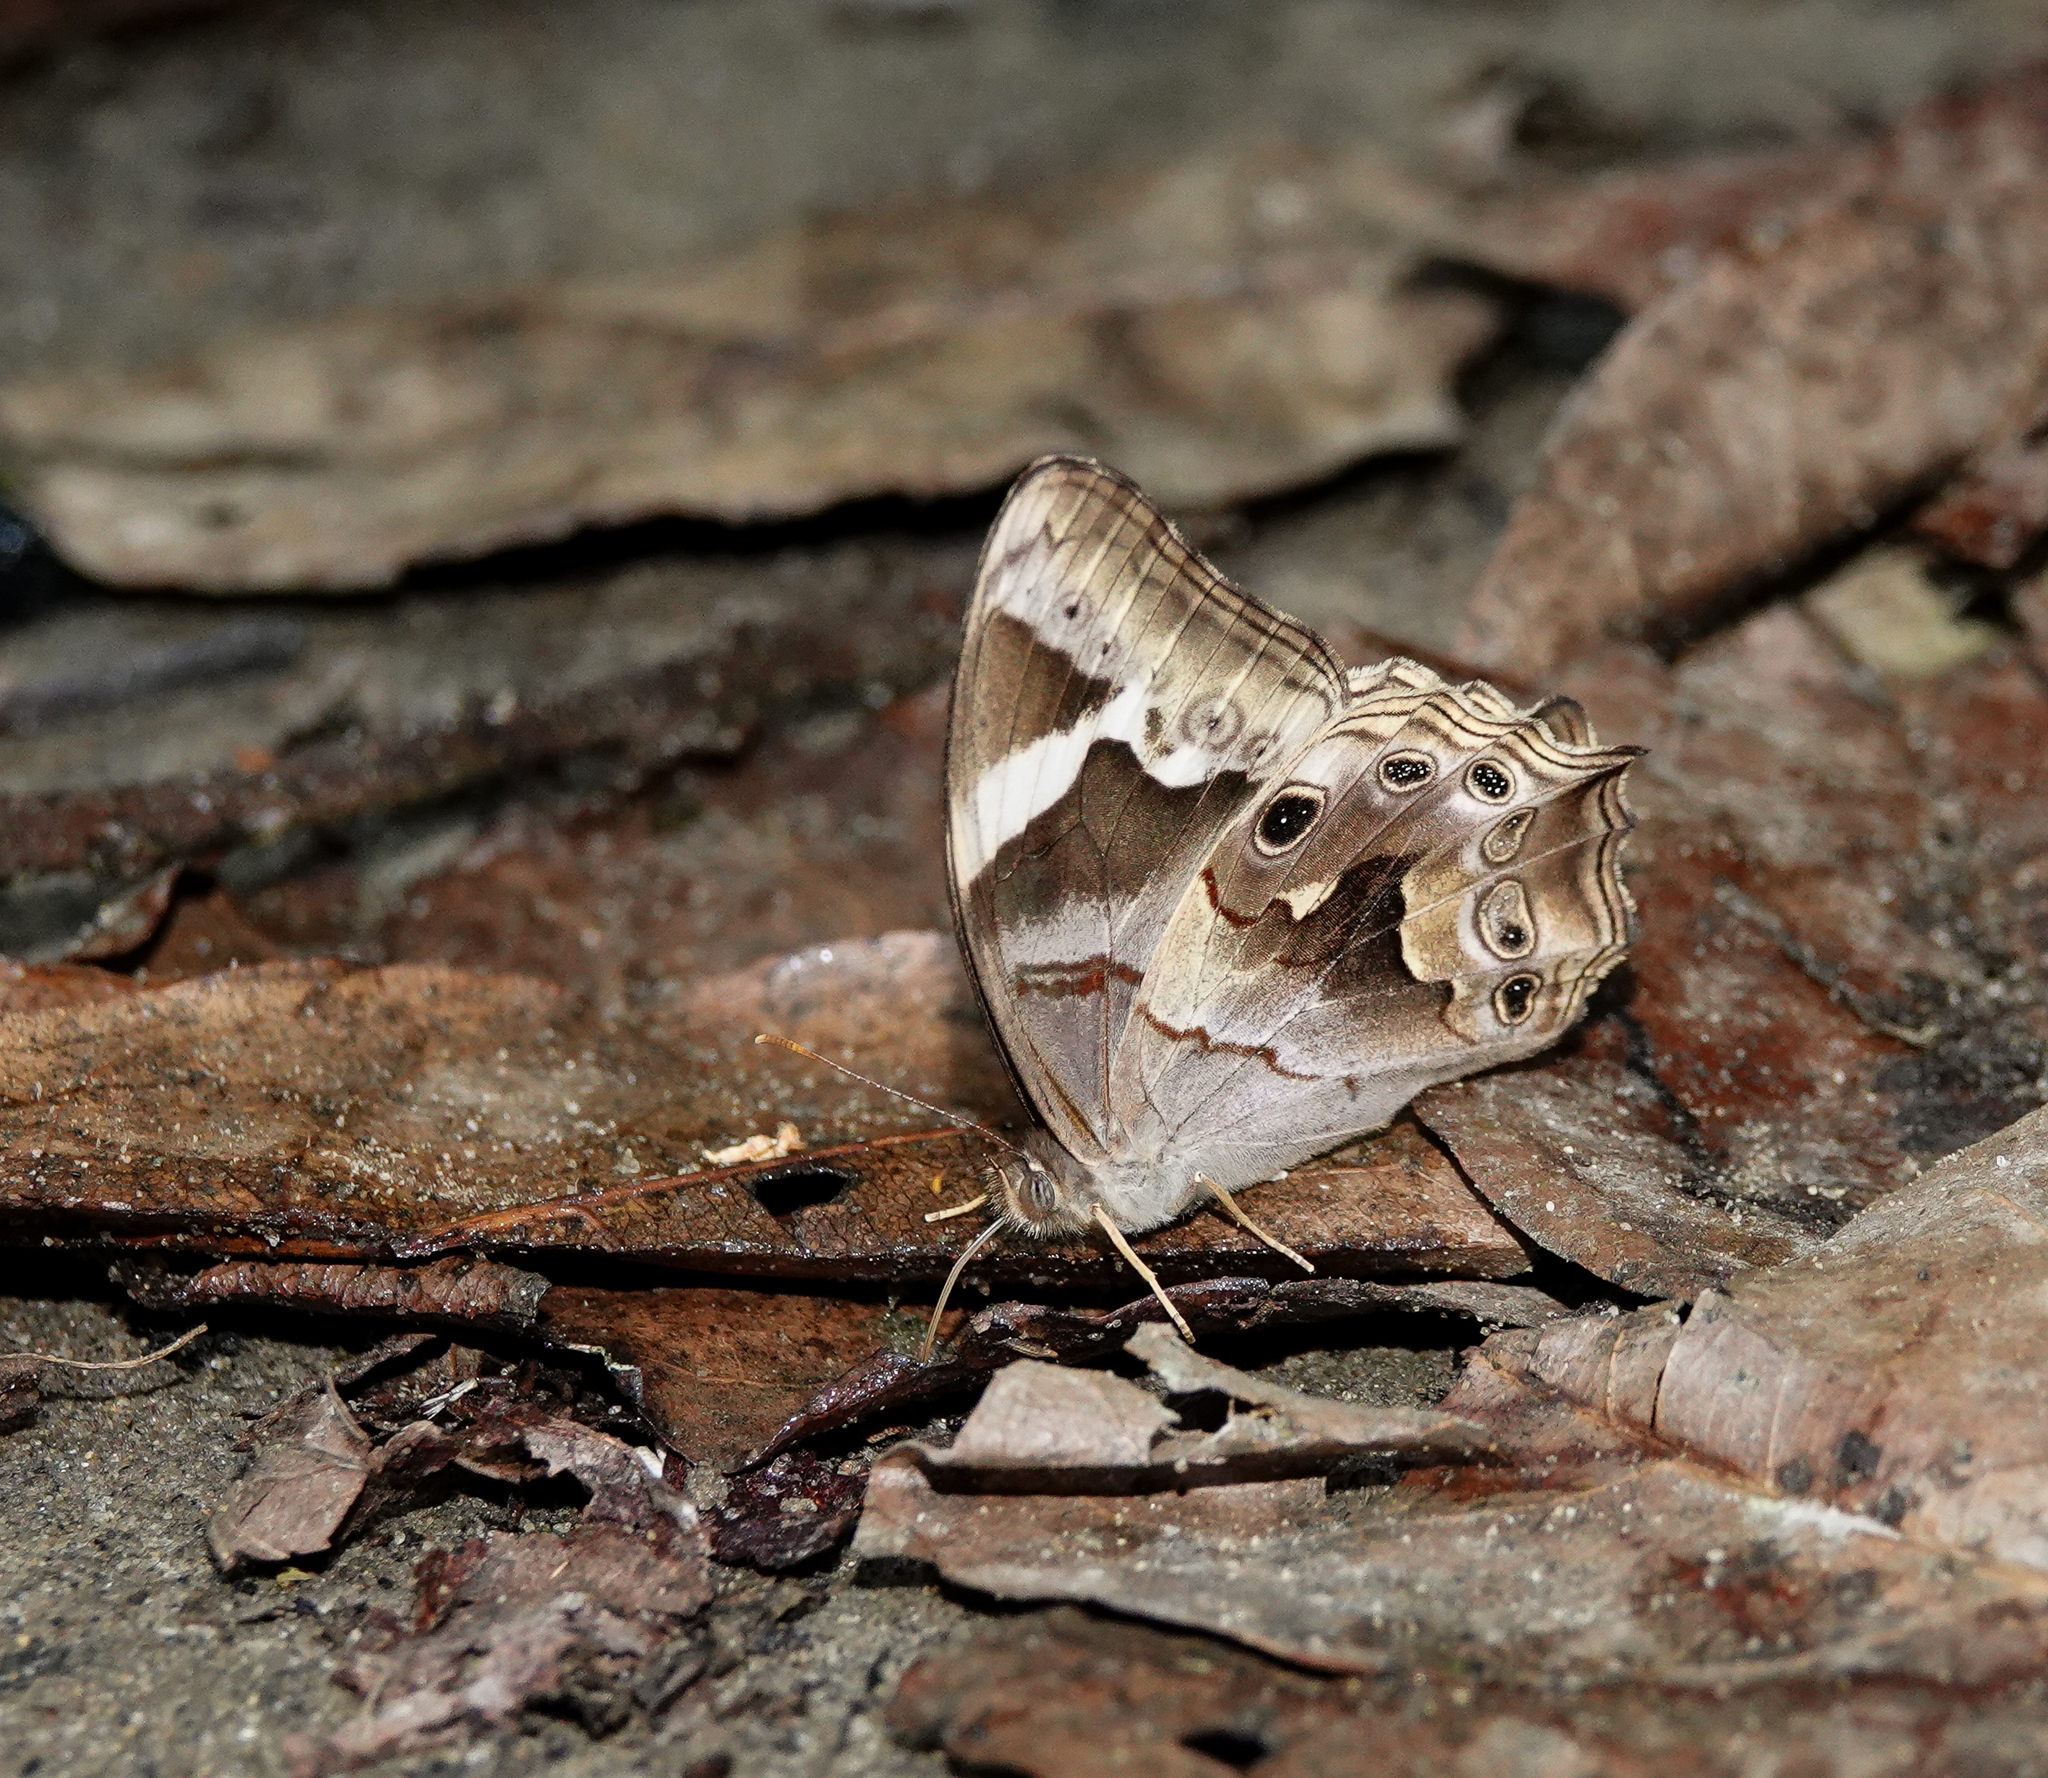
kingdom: Animalia
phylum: Arthropoda
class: Insecta
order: Lepidoptera
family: Nymphalidae
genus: Lethe
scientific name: Lethe chandica
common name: Angled red forester
